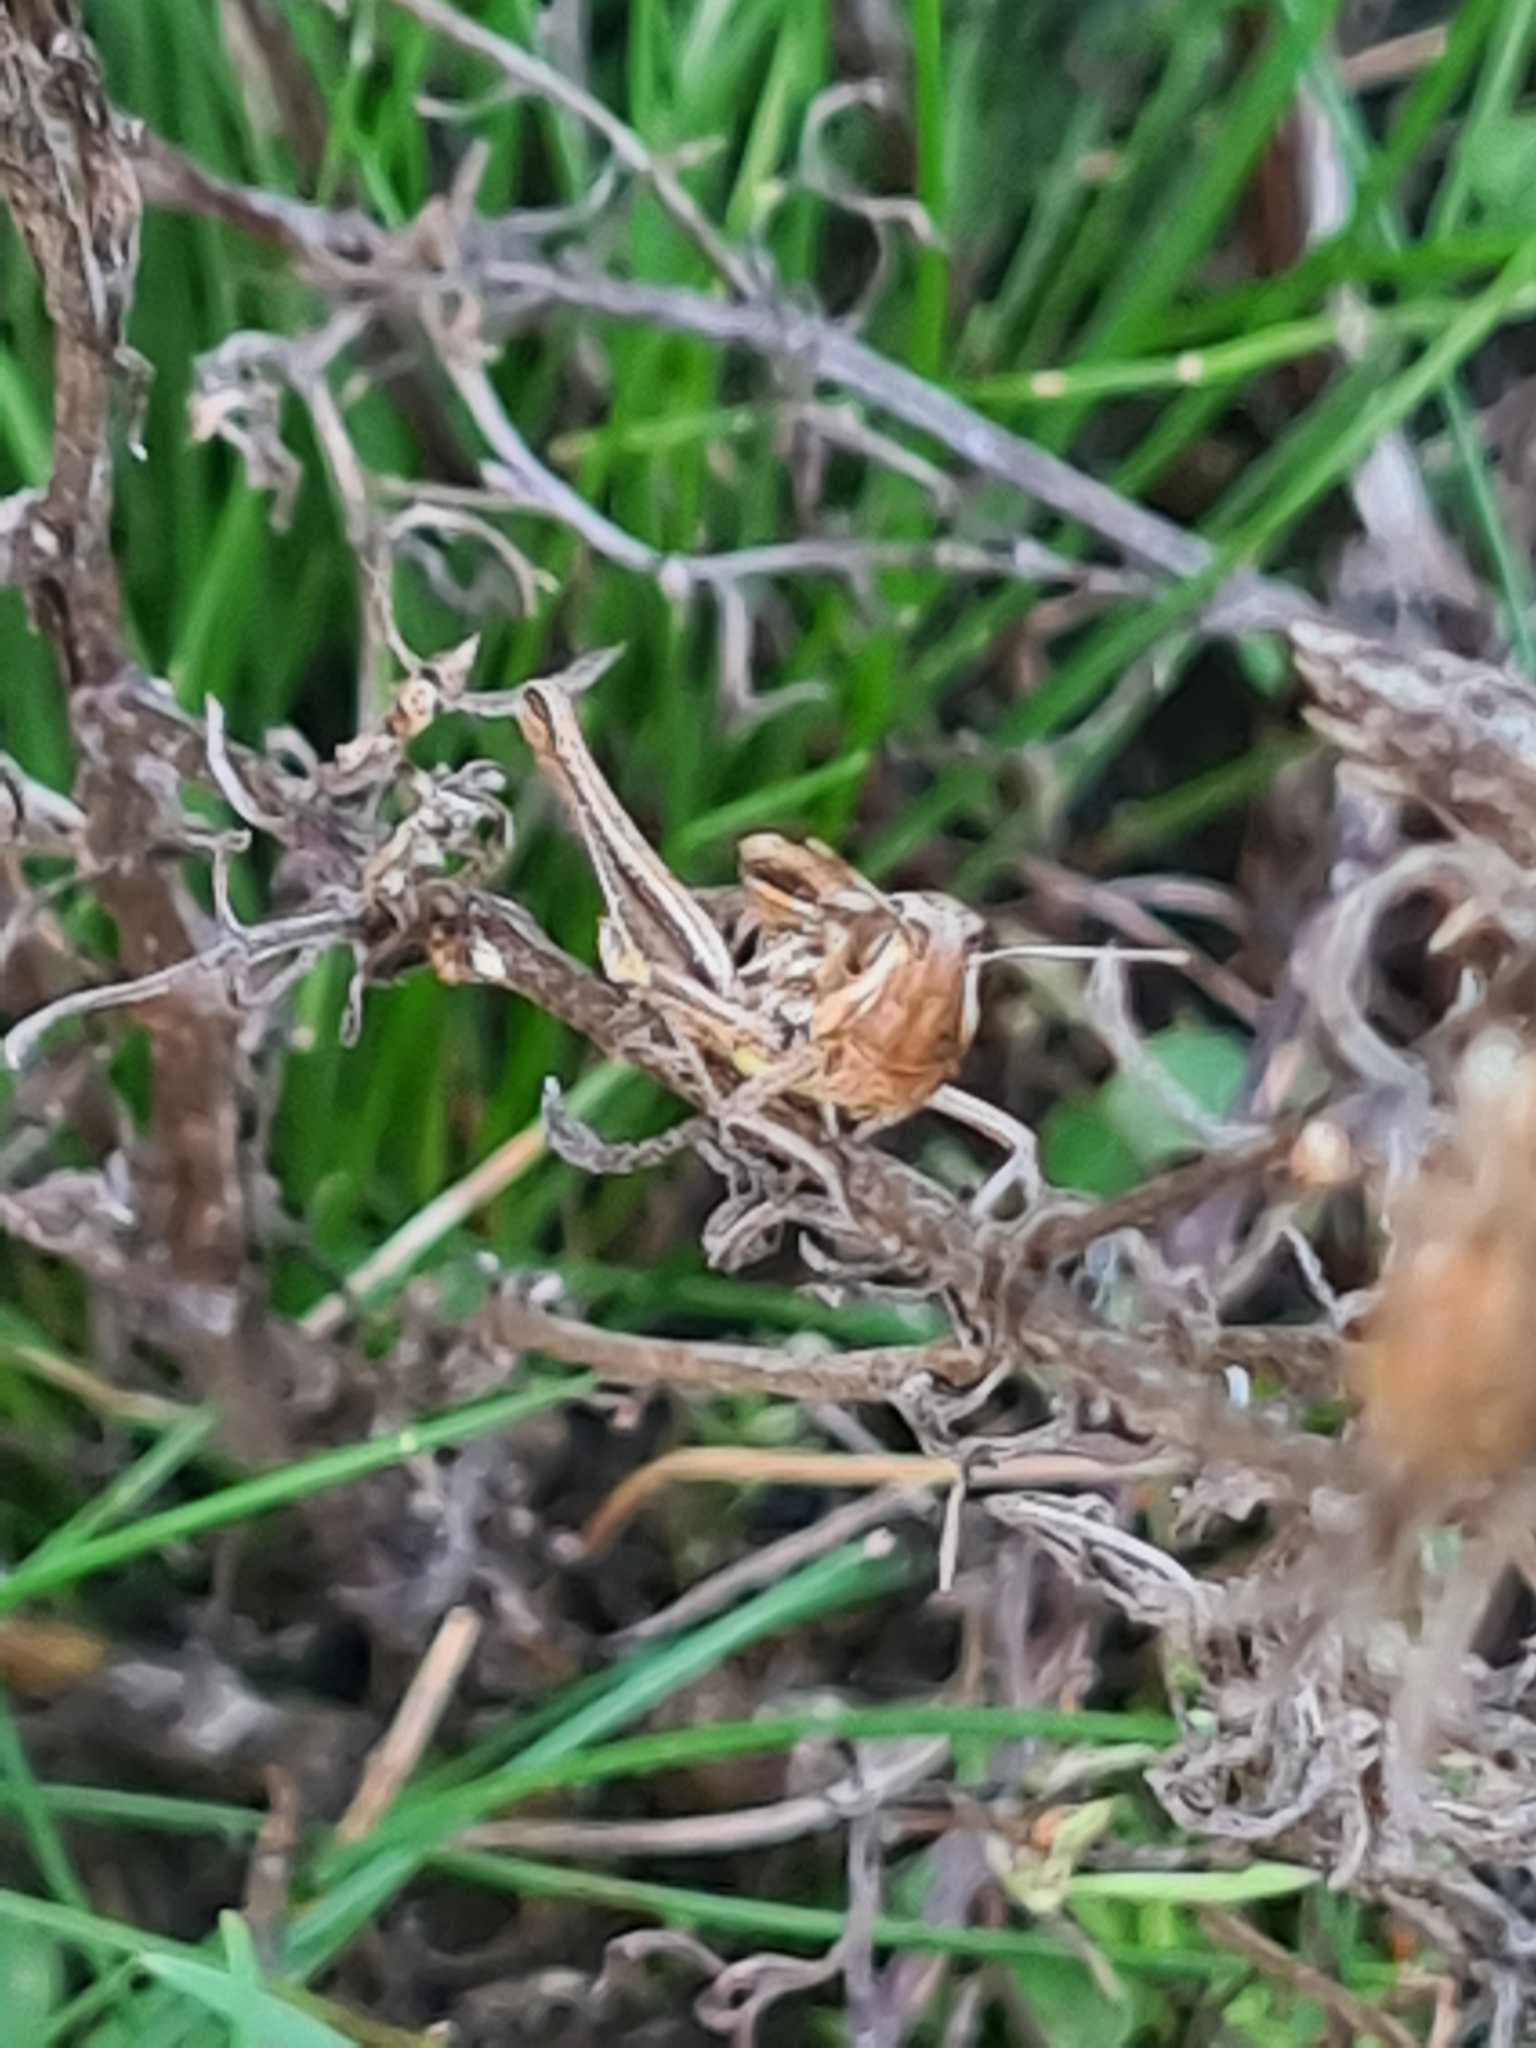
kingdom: Animalia
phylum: Arthropoda
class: Insecta
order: Orthoptera
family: Acrididae
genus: Euchorthippus
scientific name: Euchorthippus declivus
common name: Common straw grasshopper
